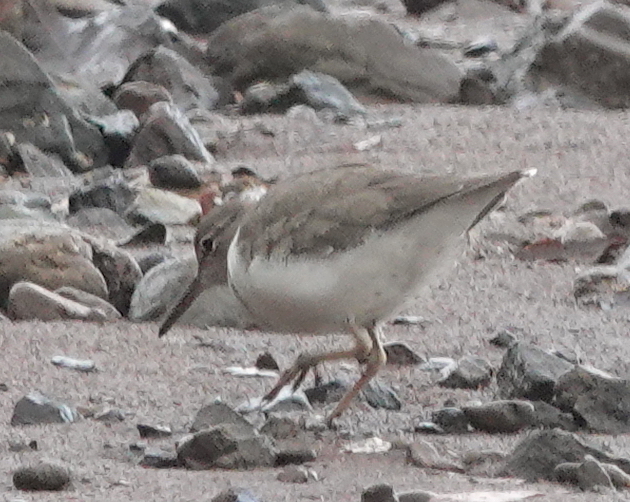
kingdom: Animalia
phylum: Chordata
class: Aves
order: Charadriiformes
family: Scolopacidae
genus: Actitis
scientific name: Actitis macularius
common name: Spotted sandpiper
